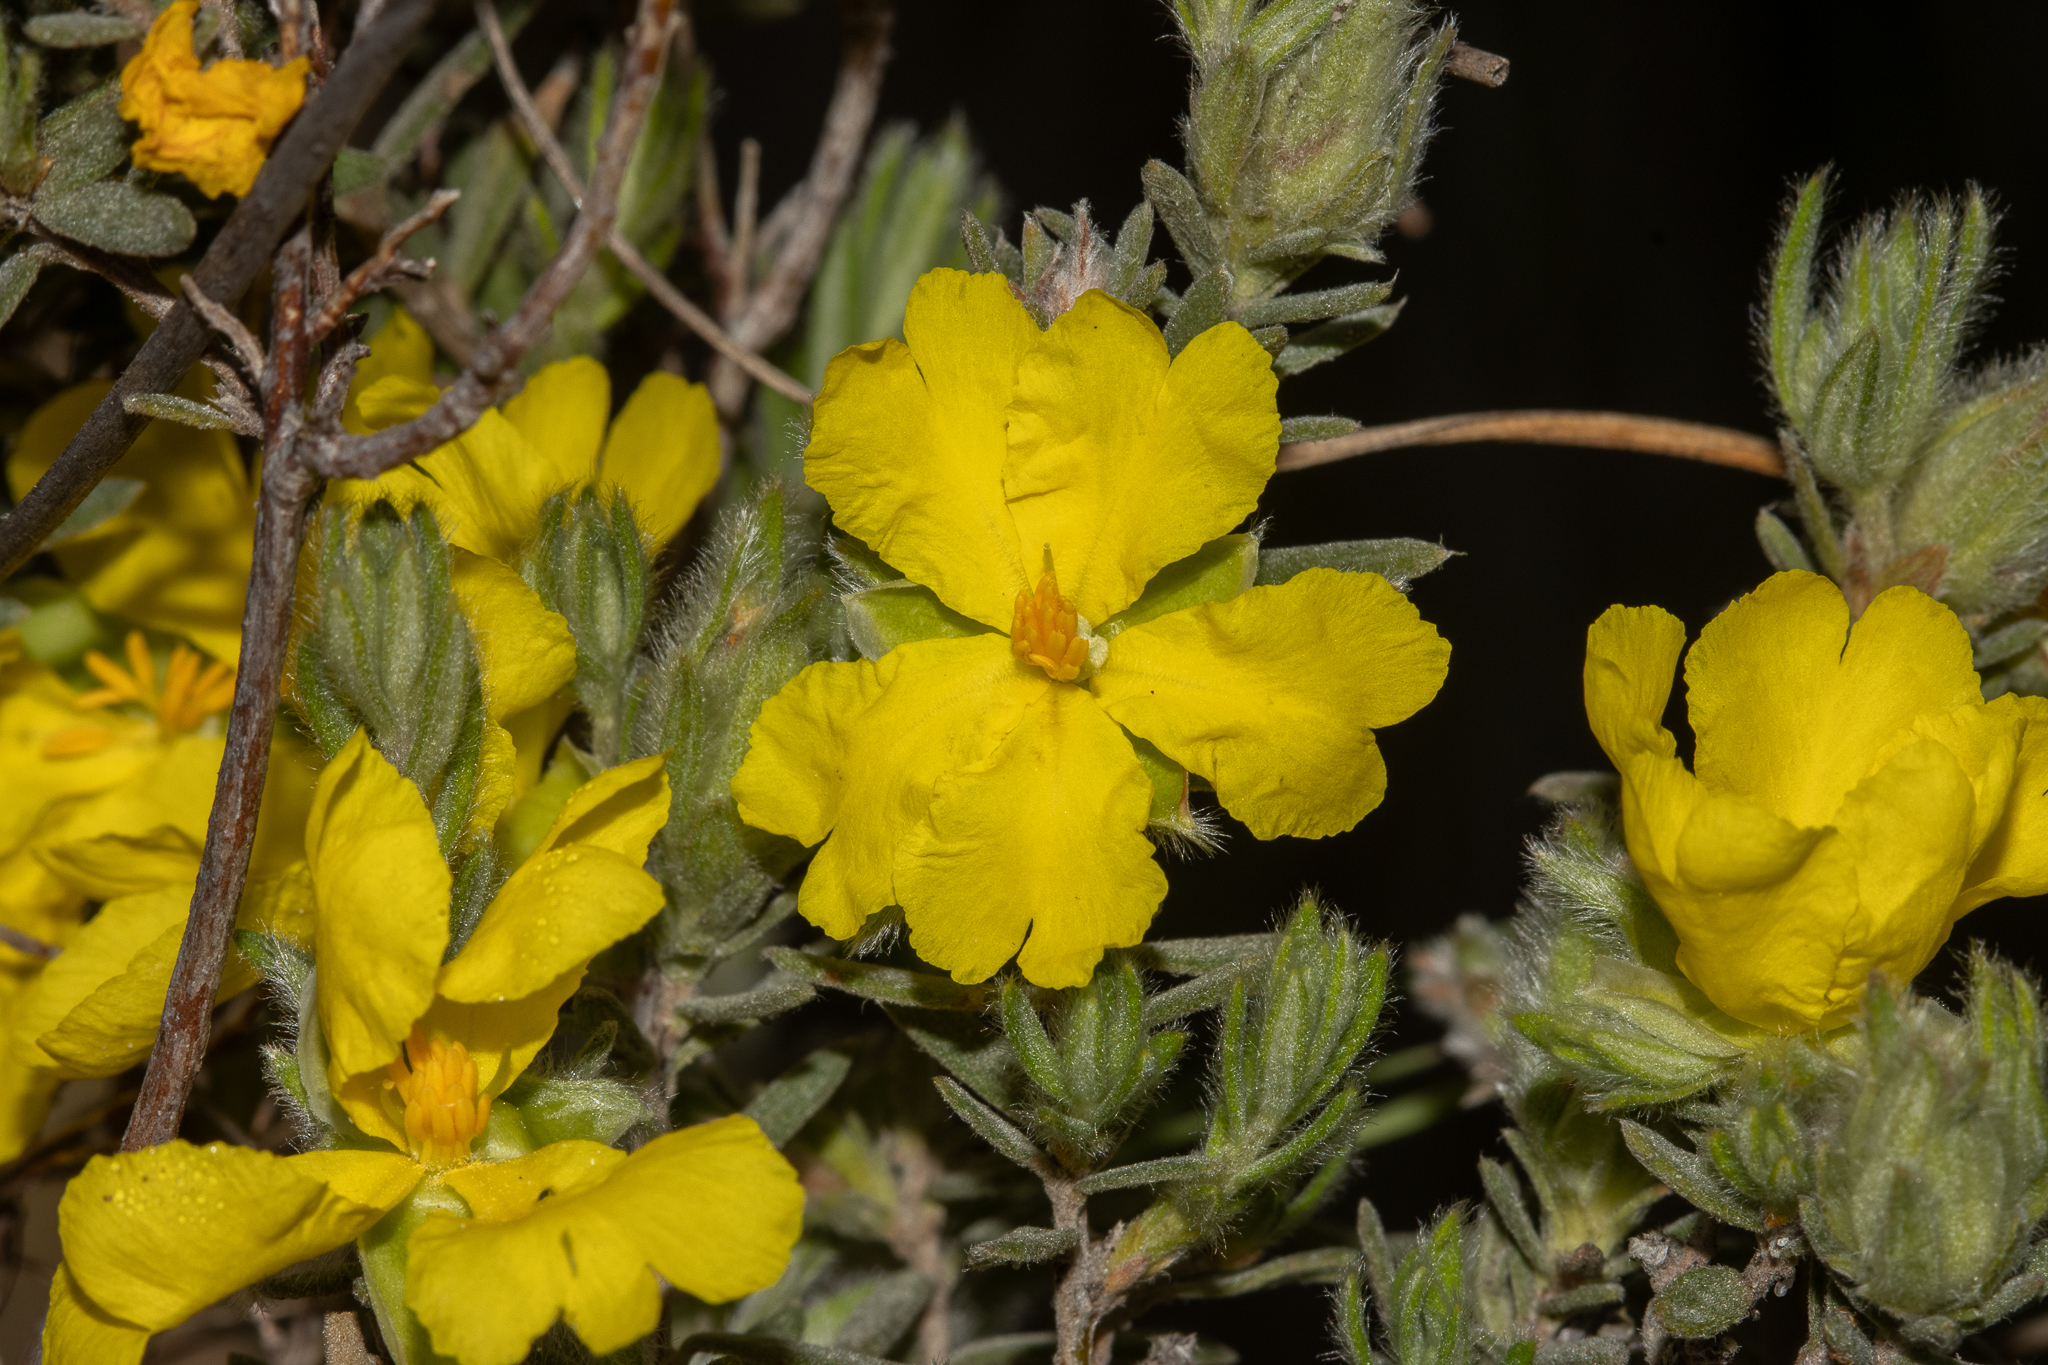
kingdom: Plantae
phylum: Tracheophyta
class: Magnoliopsida
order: Dilleniales
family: Dilleniaceae
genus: Hibbertia
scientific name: Hibbertia crinita
